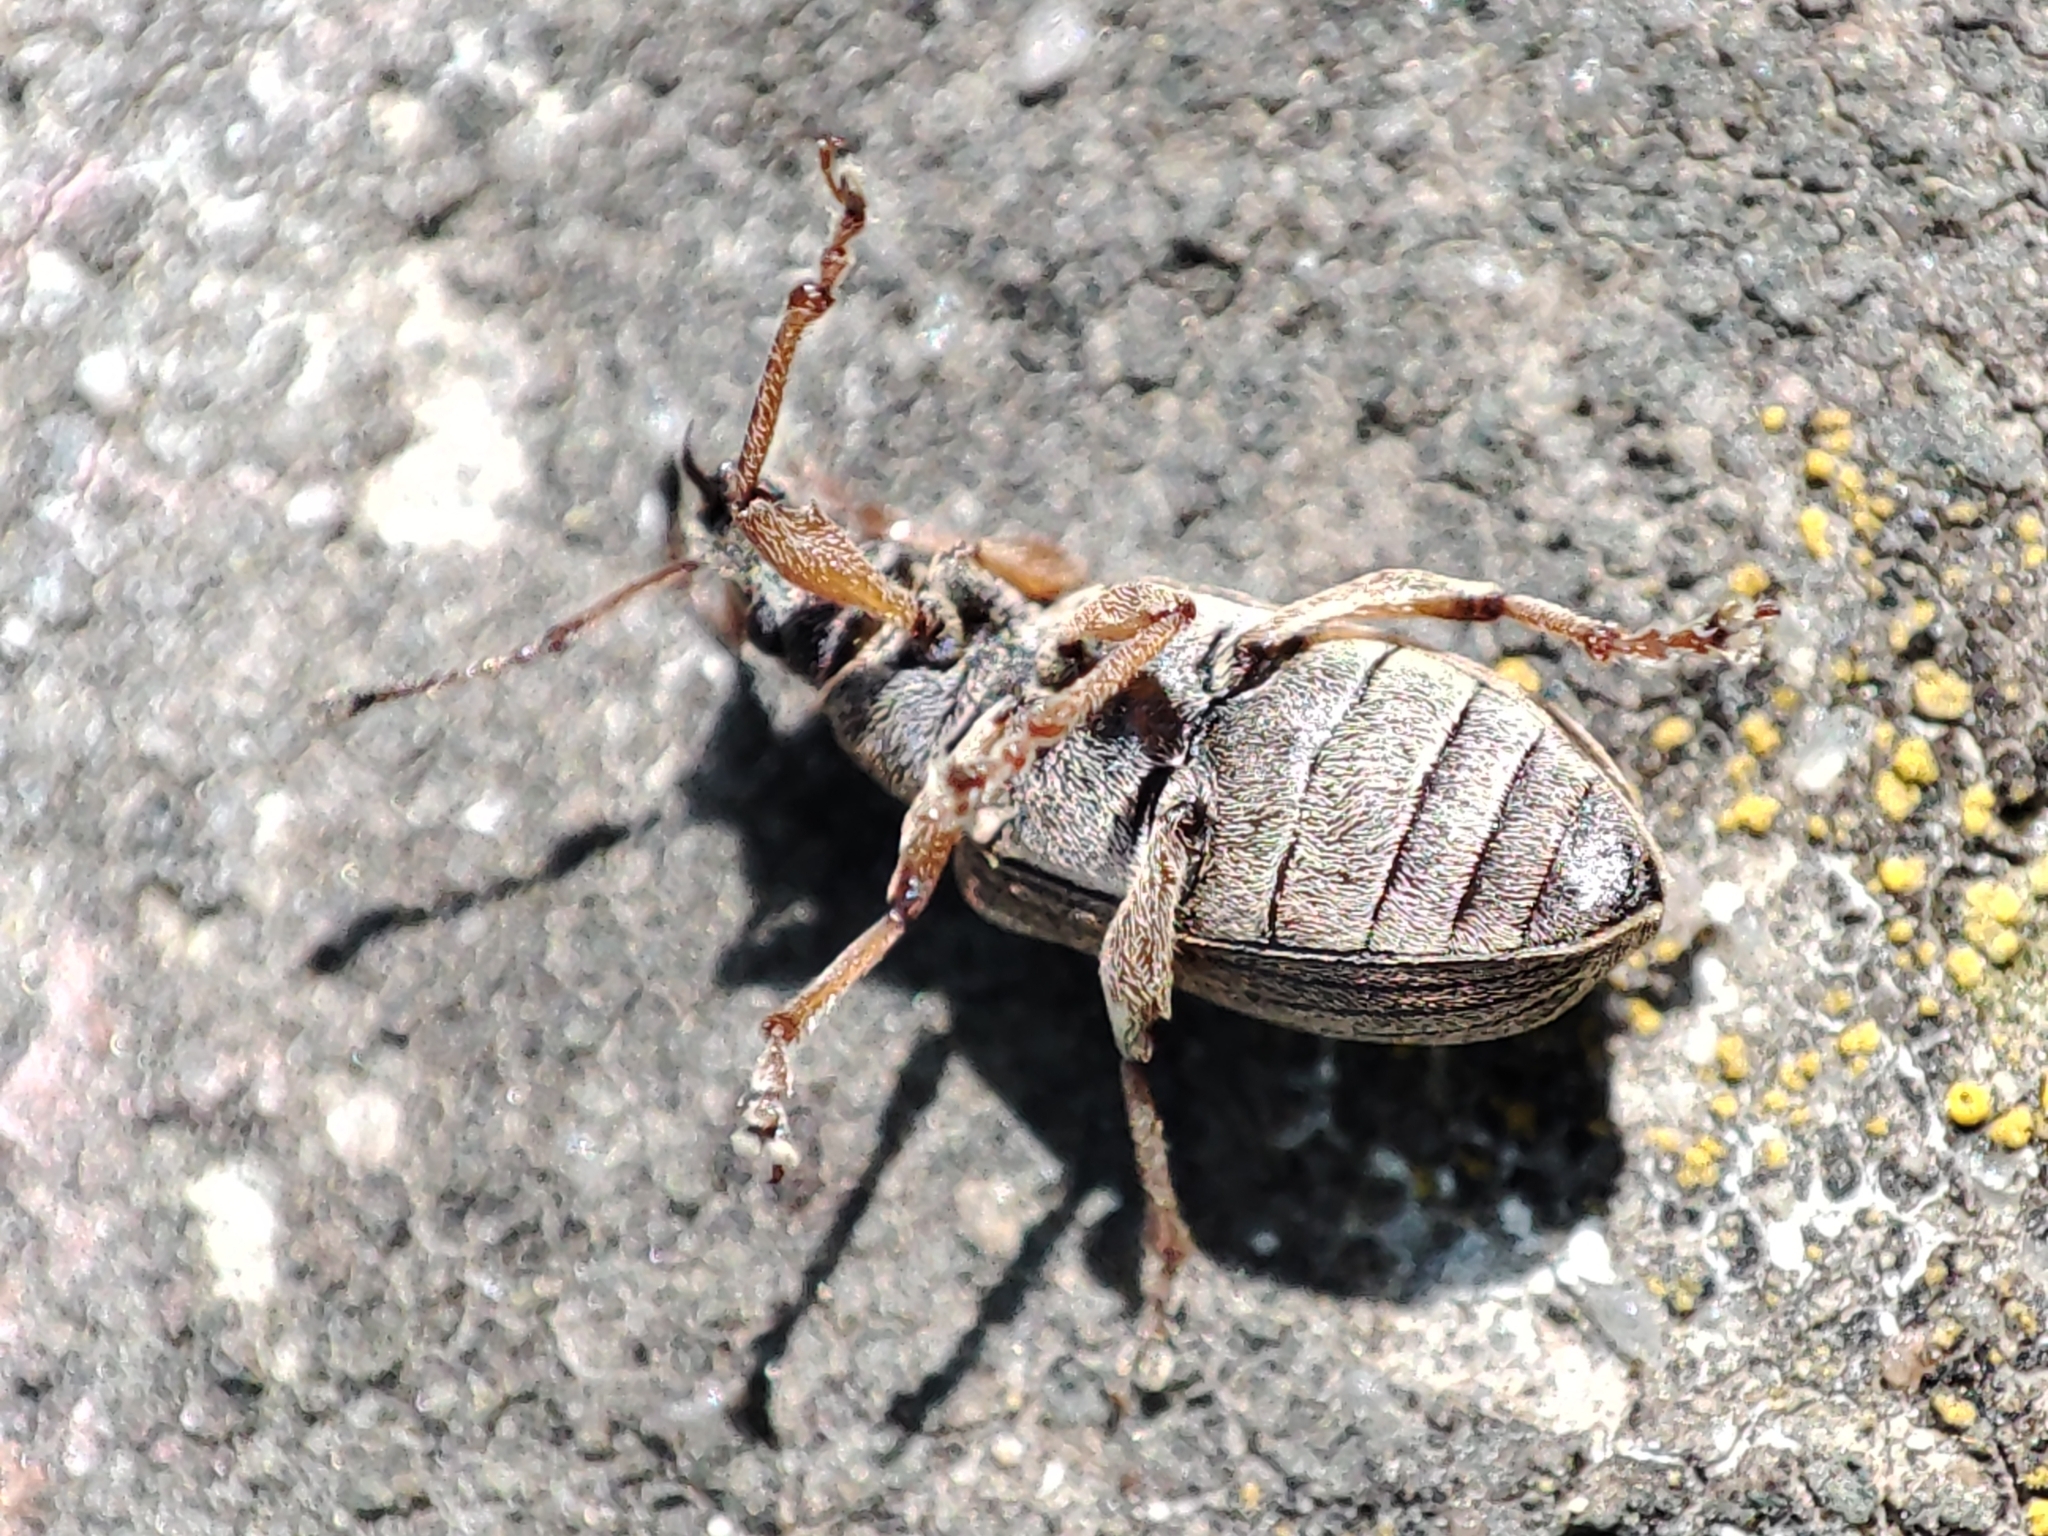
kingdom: Animalia
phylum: Arthropoda
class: Insecta
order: Coleoptera
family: Curculionidae
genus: Phyllobius
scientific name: Phyllobius pyri
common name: Common leaf weevil
